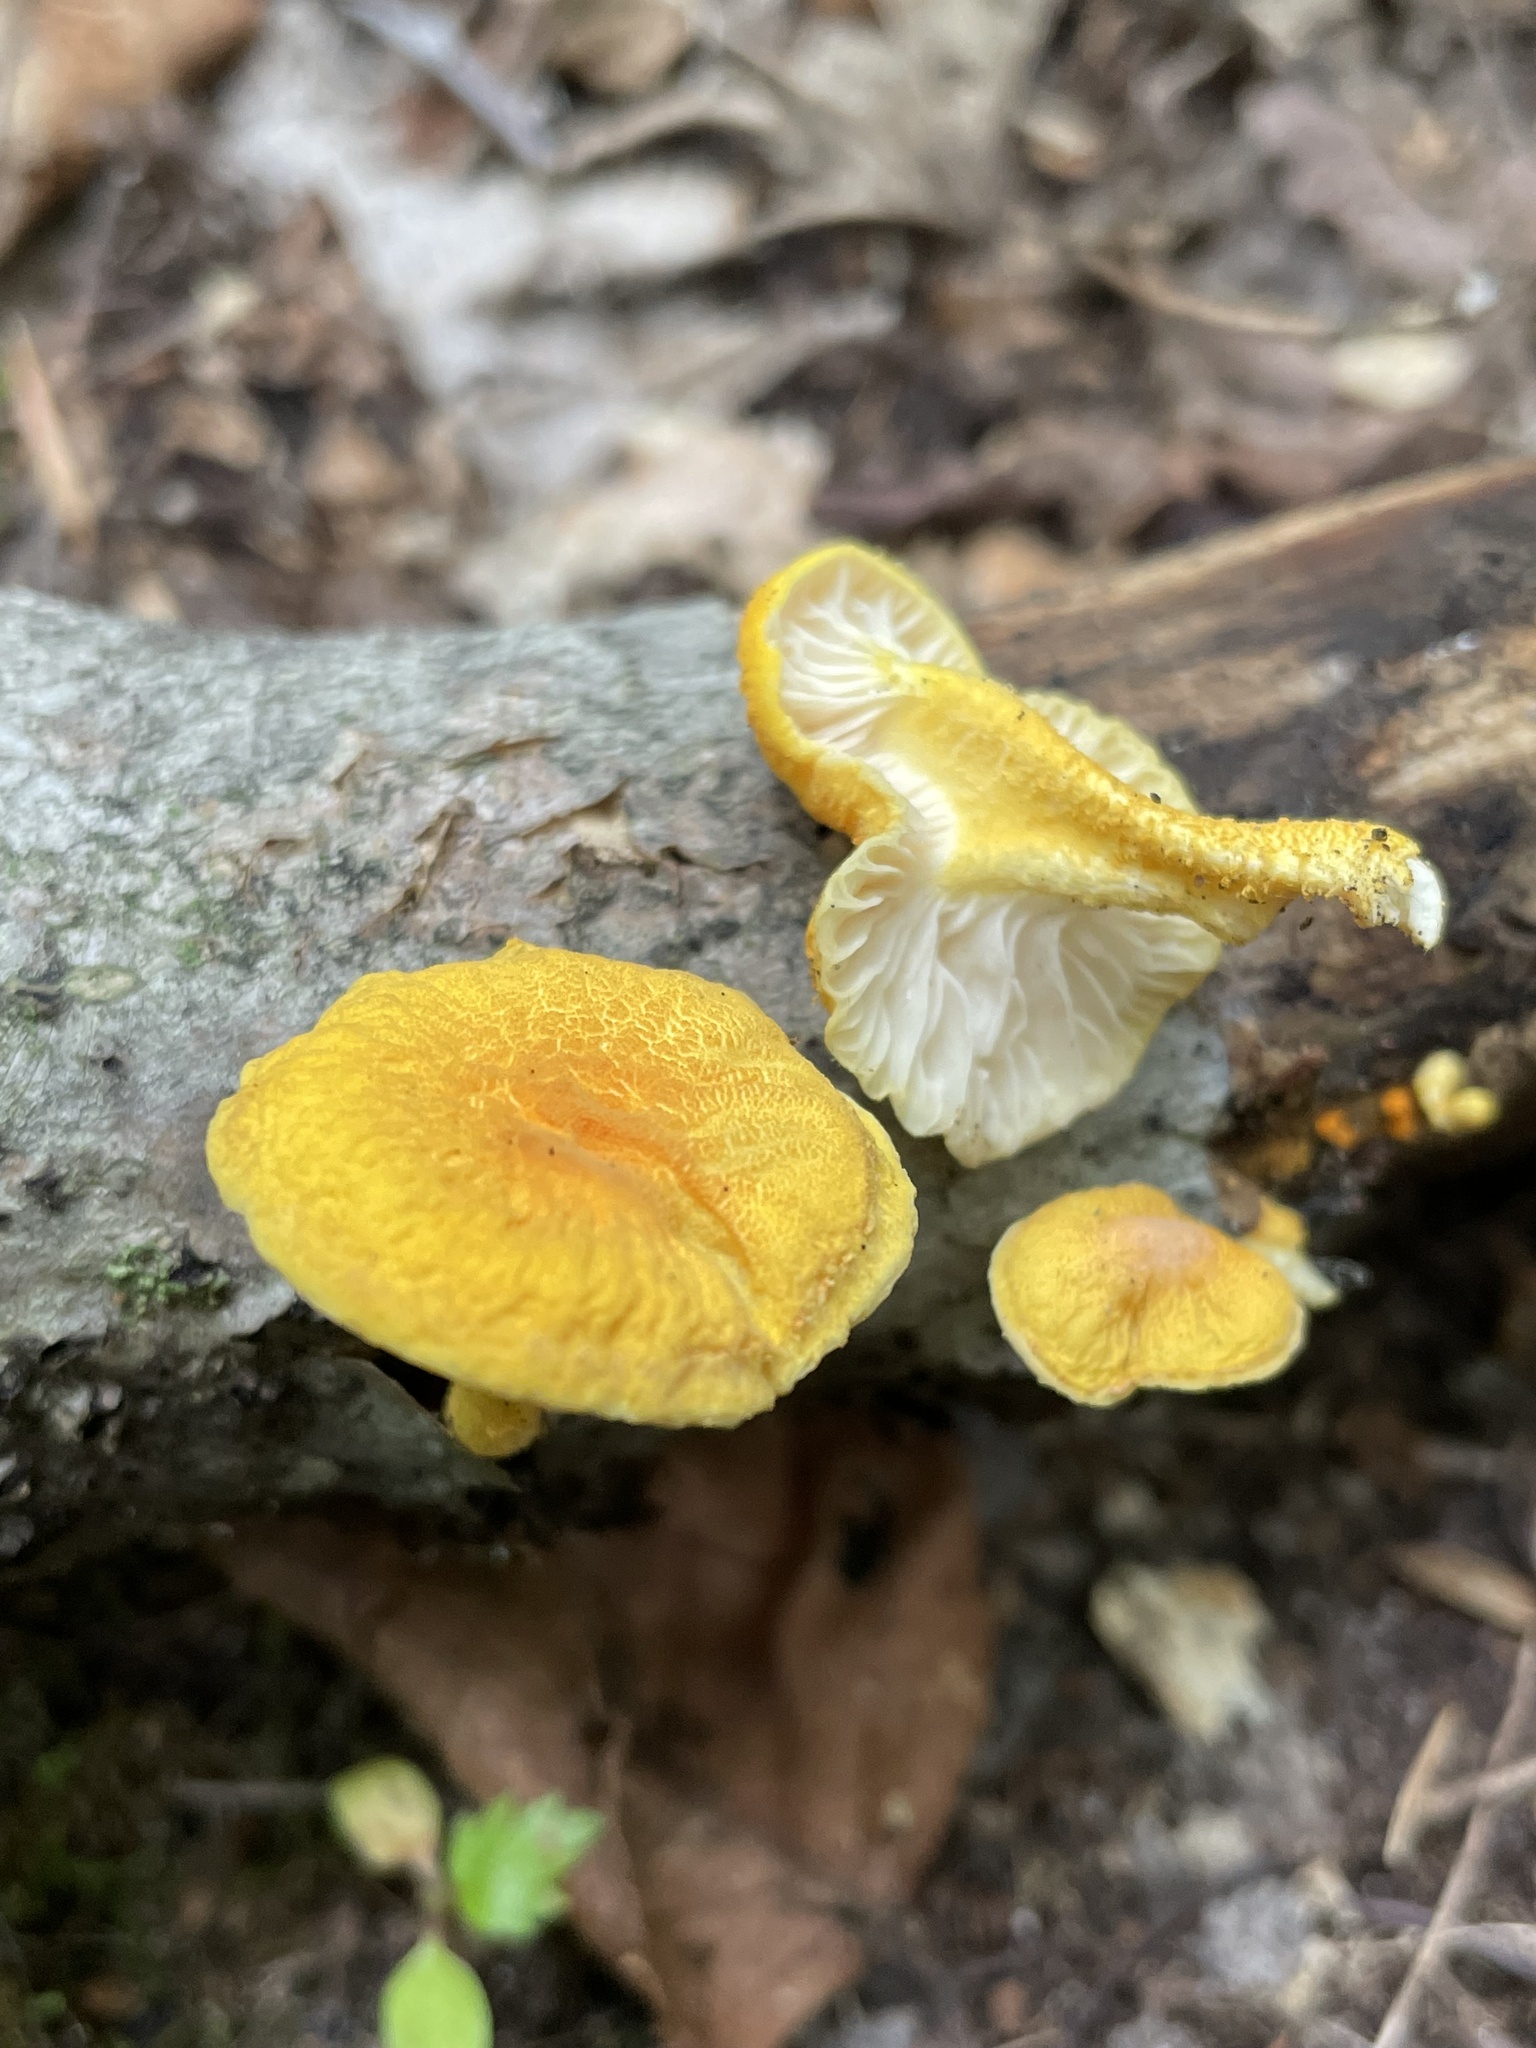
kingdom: Fungi
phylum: Basidiomycota
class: Agaricomycetes
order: Agaricales
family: Physalacriaceae
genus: Cyptotrama
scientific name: Cyptotrama chrysopepla
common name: Golden coincap
